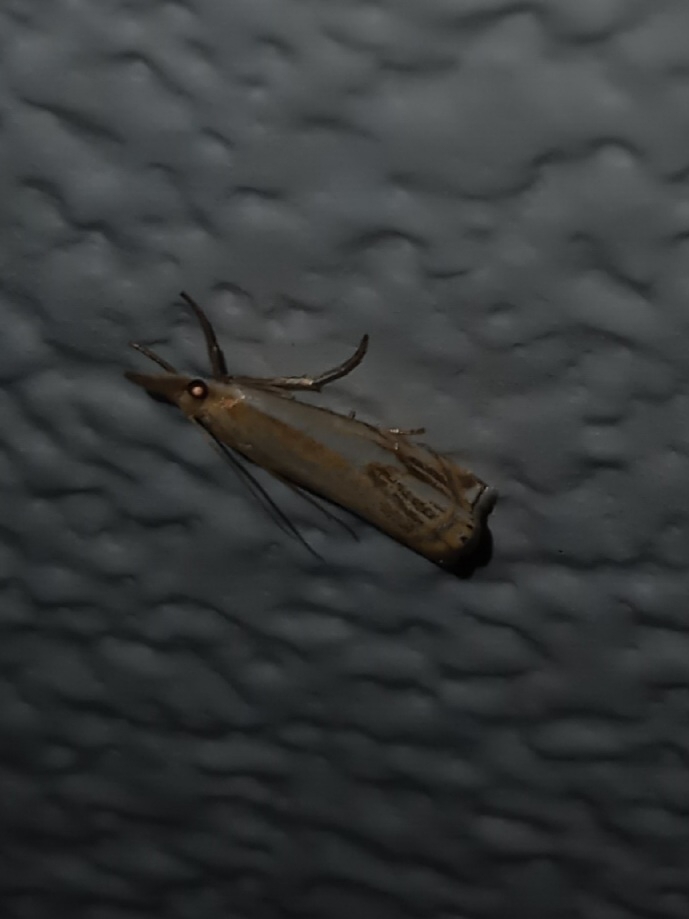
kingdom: Animalia
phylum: Arthropoda
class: Insecta
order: Lepidoptera
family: Crambidae
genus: Crambus
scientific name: Crambus agitatellus
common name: Double-banded grass-veneer
